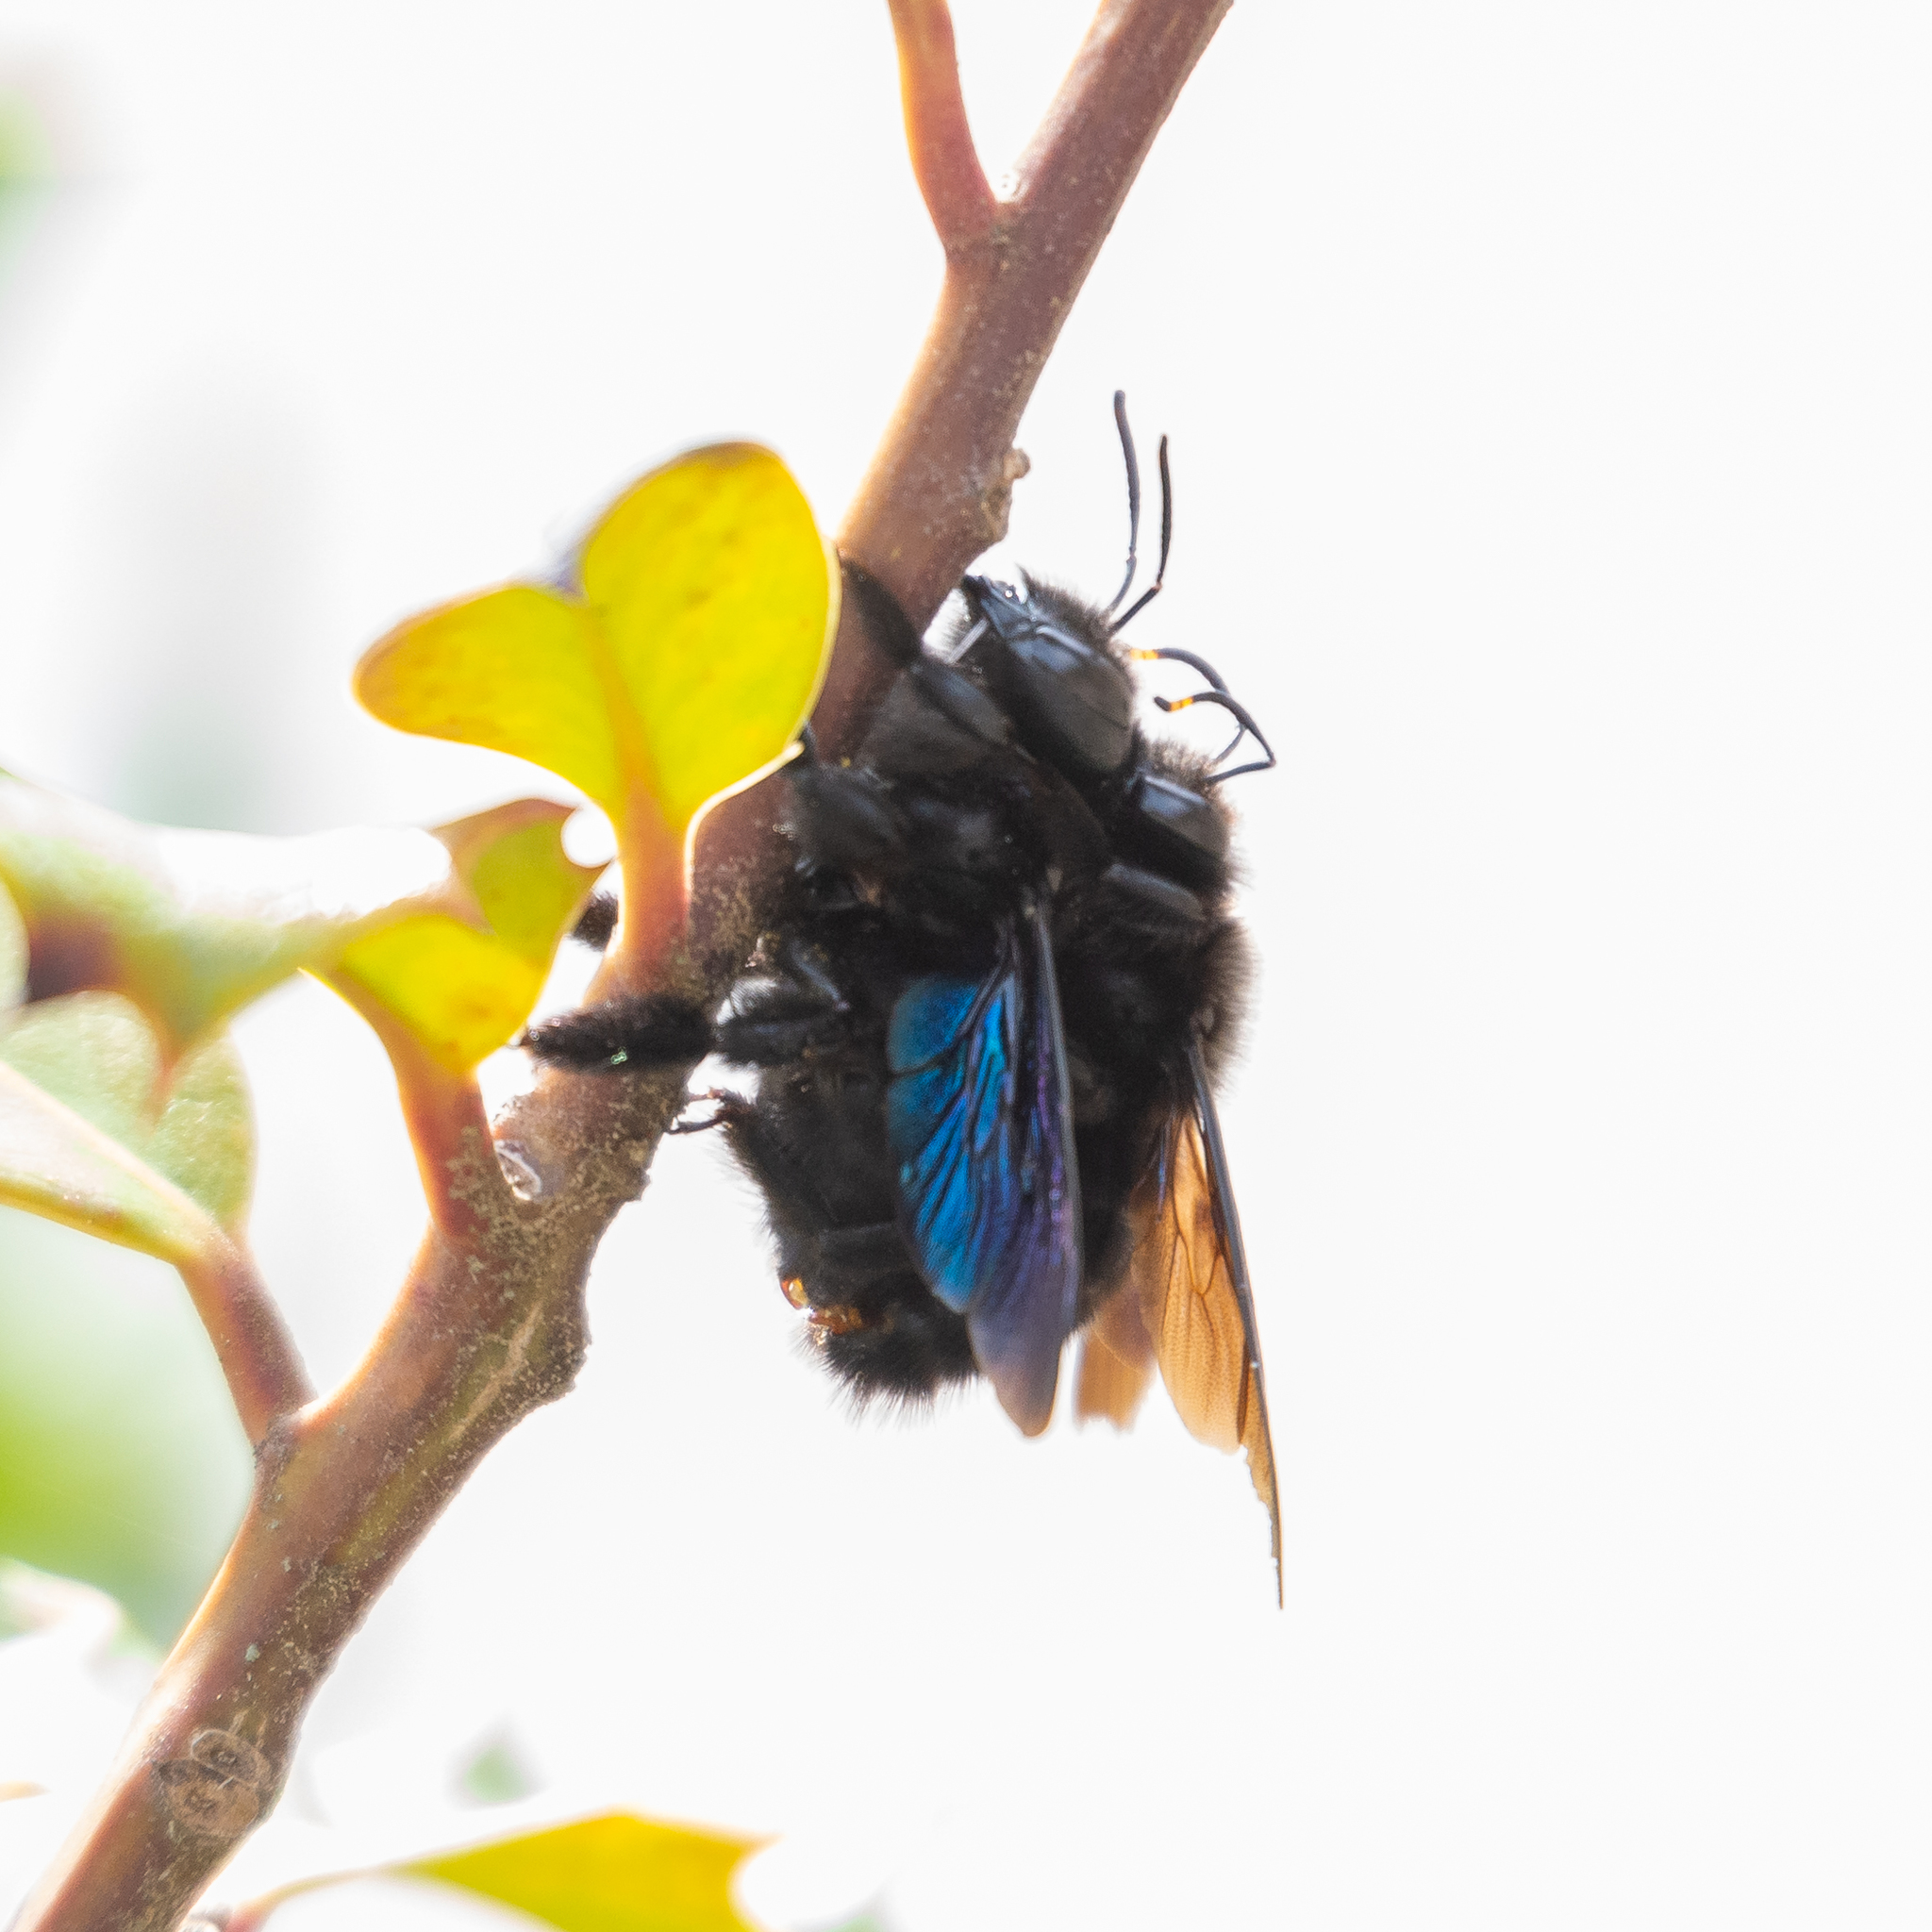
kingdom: Animalia
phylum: Arthropoda
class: Insecta
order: Hymenoptera
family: Apidae
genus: Xylocopa
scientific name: Xylocopa violacea
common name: Violet carpenter bee
